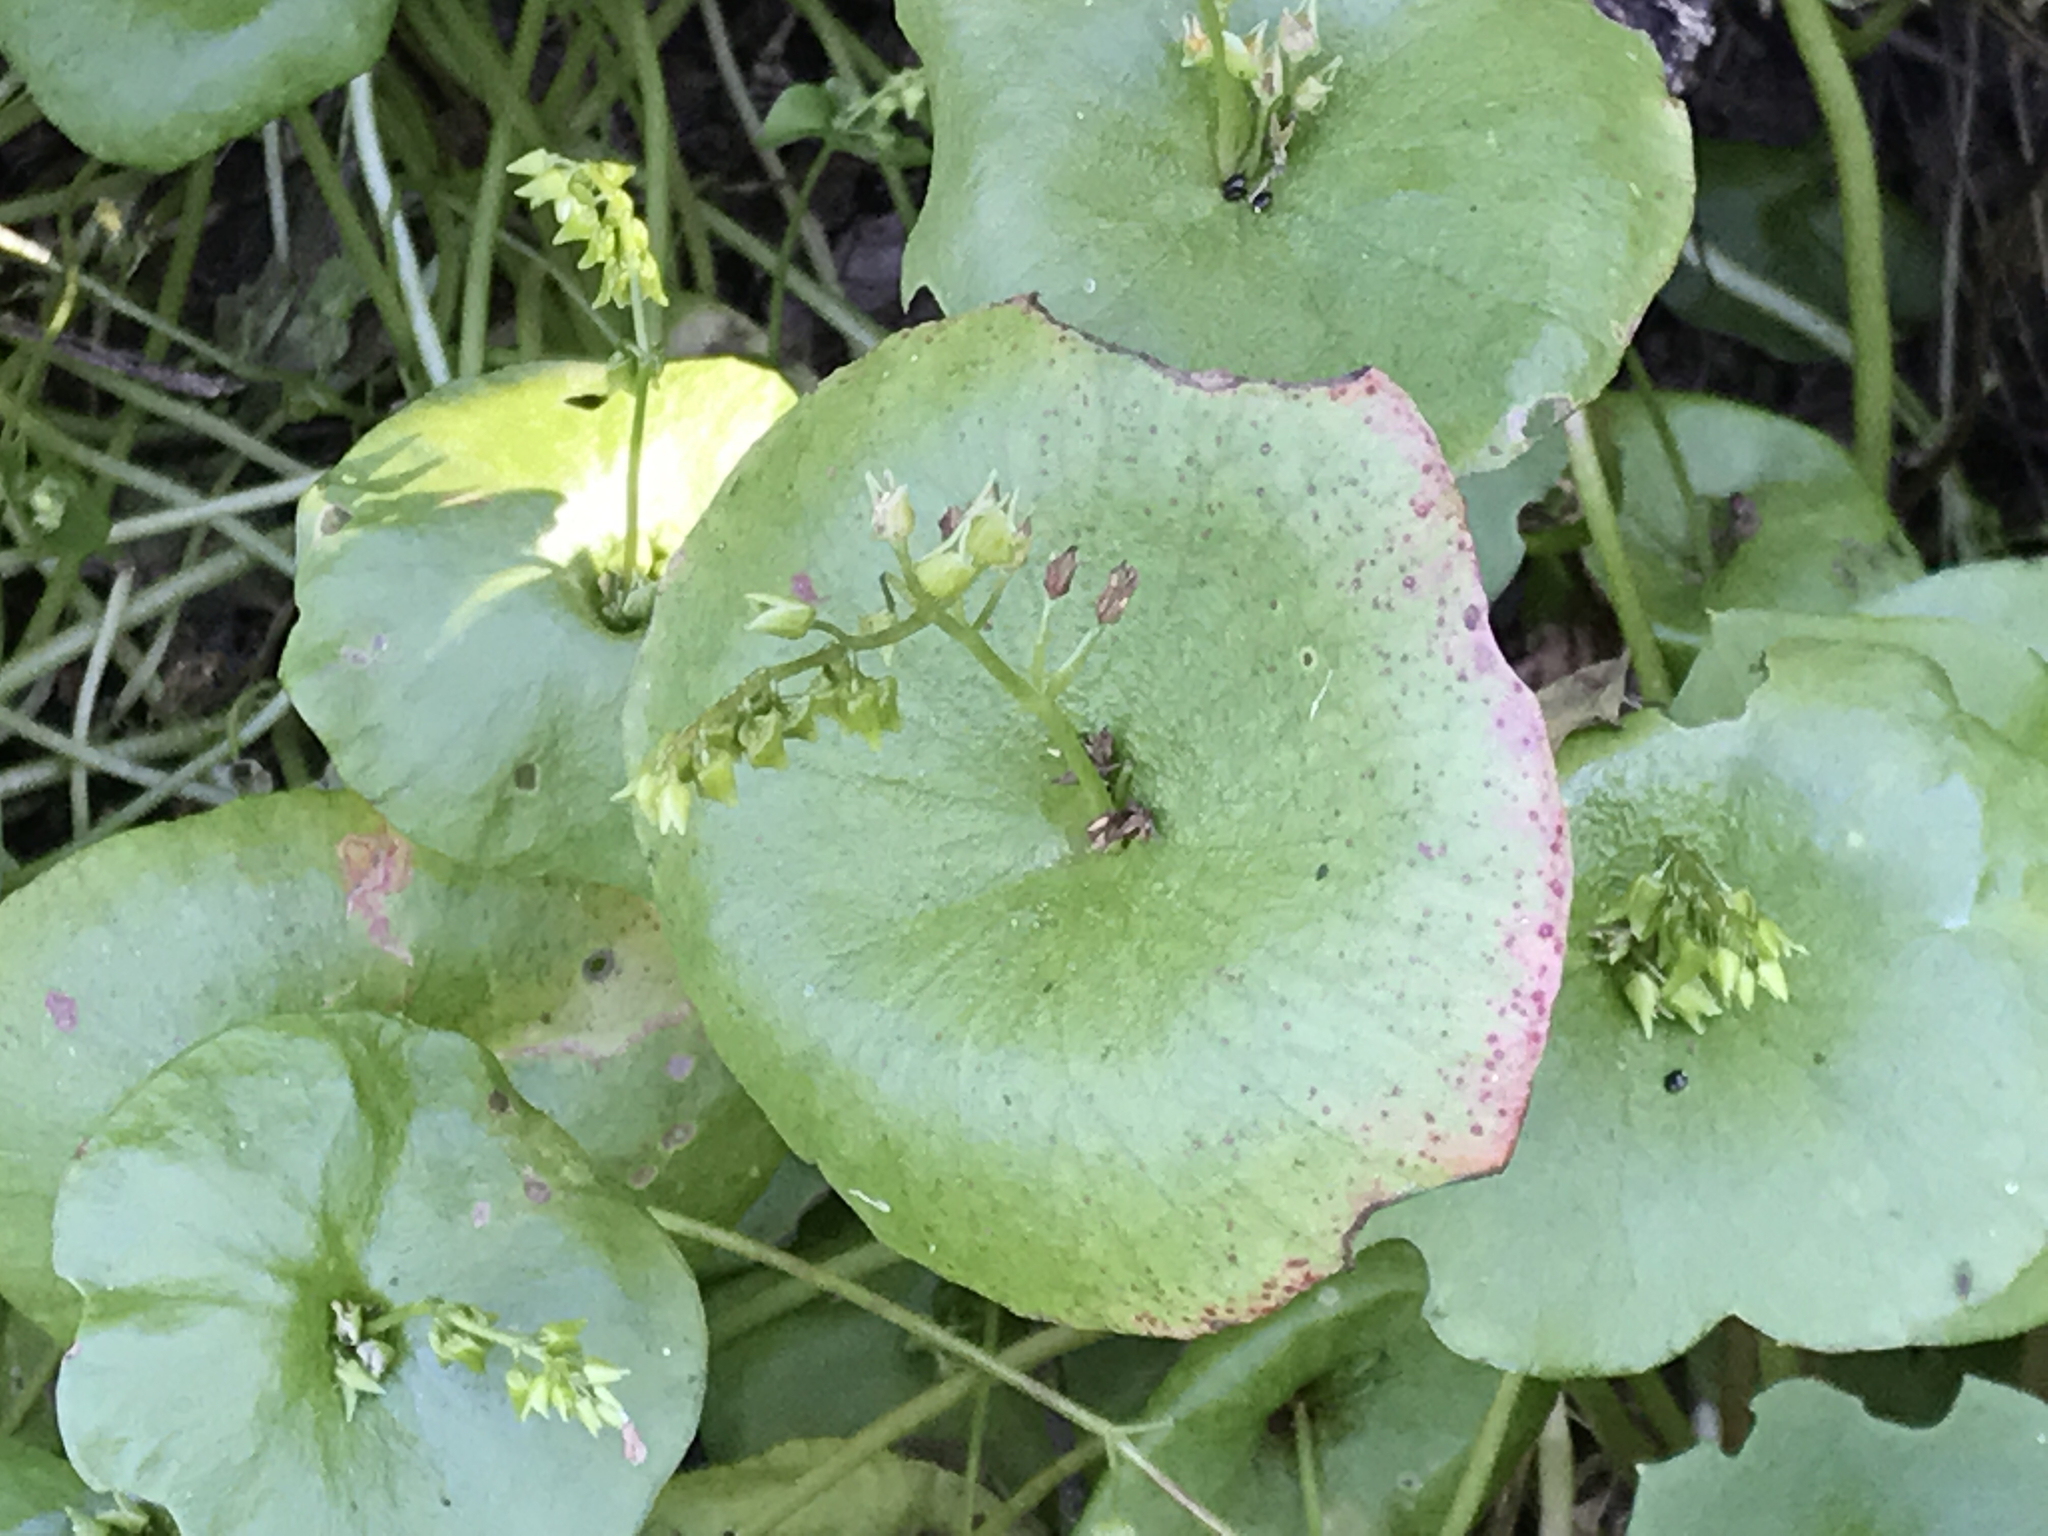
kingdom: Plantae
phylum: Tracheophyta
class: Magnoliopsida
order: Caryophyllales
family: Montiaceae
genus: Claytonia
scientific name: Claytonia perfoliata
